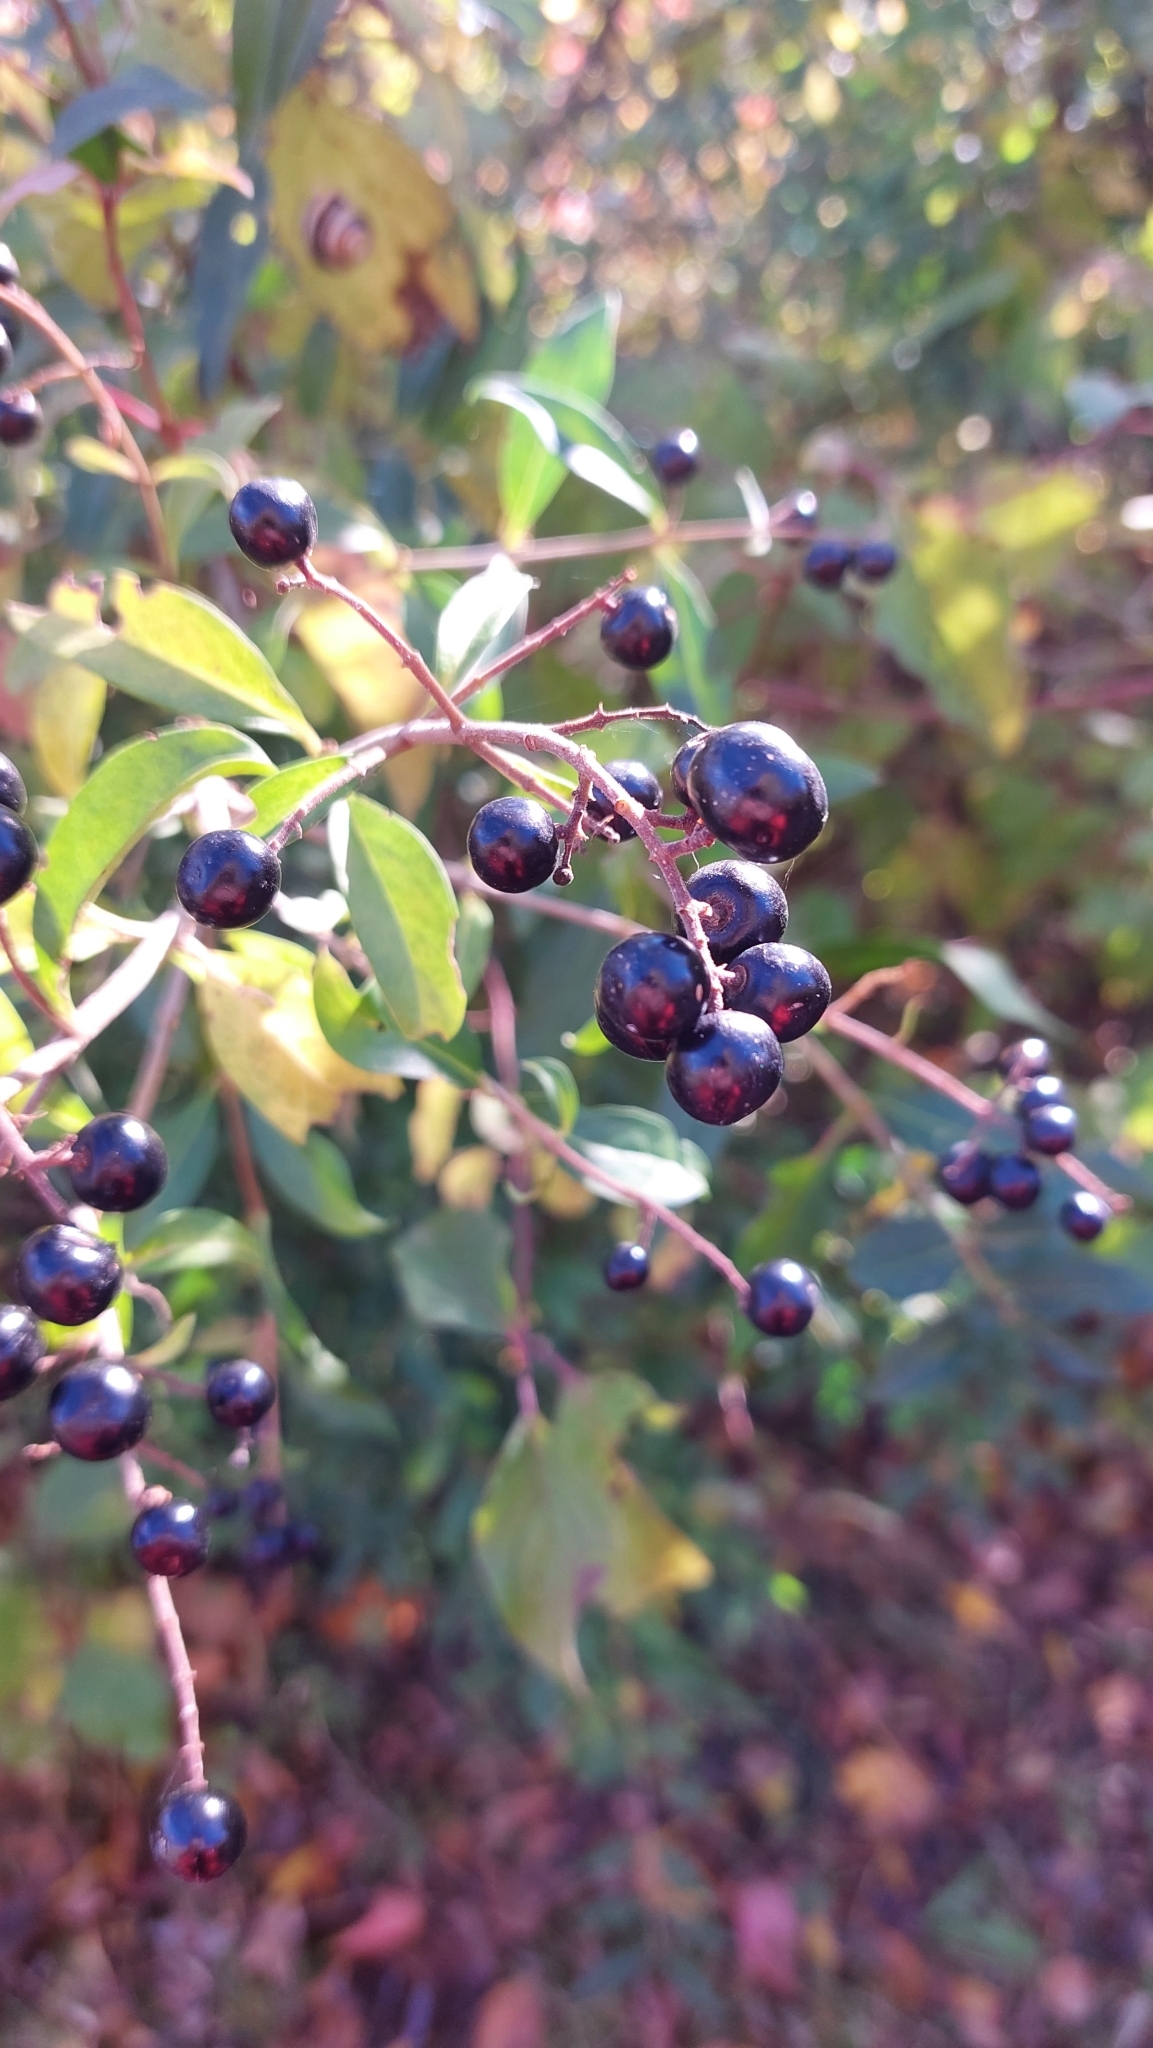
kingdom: Plantae
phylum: Tracheophyta
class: Magnoliopsida
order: Lamiales
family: Oleaceae
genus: Ligustrum
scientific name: Ligustrum vulgare
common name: Wild privet
